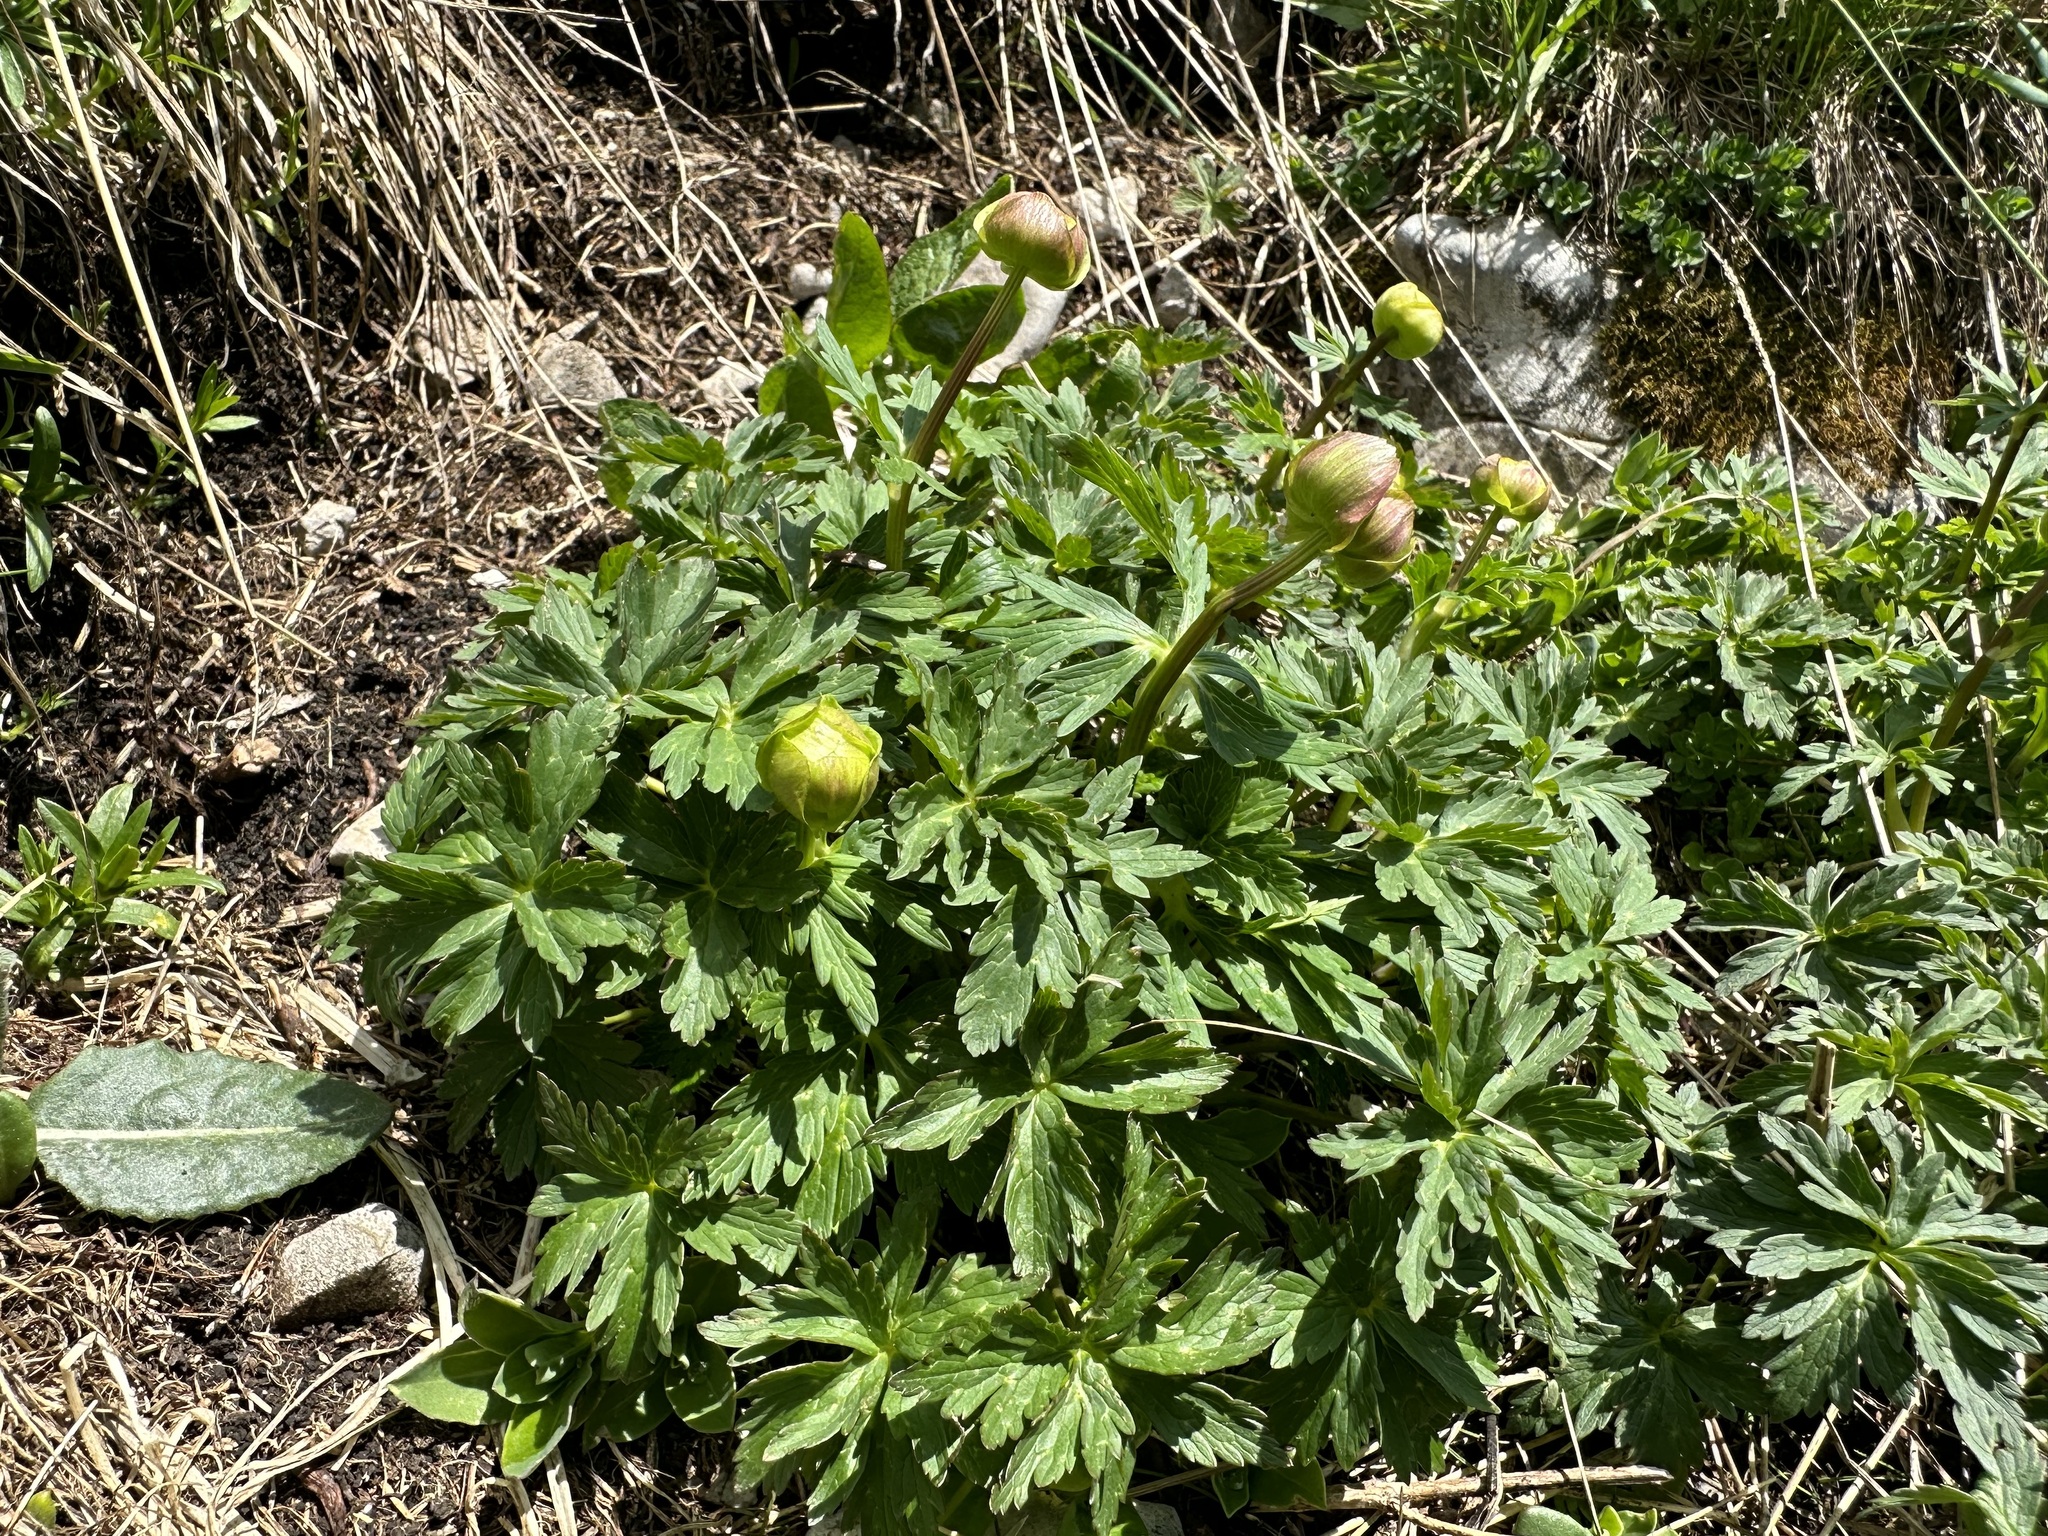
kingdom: Plantae
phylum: Tracheophyta
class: Magnoliopsida
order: Ranunculales
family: Ranunculaceae
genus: Trollius
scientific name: Trollius europaeus
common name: European globeflower
